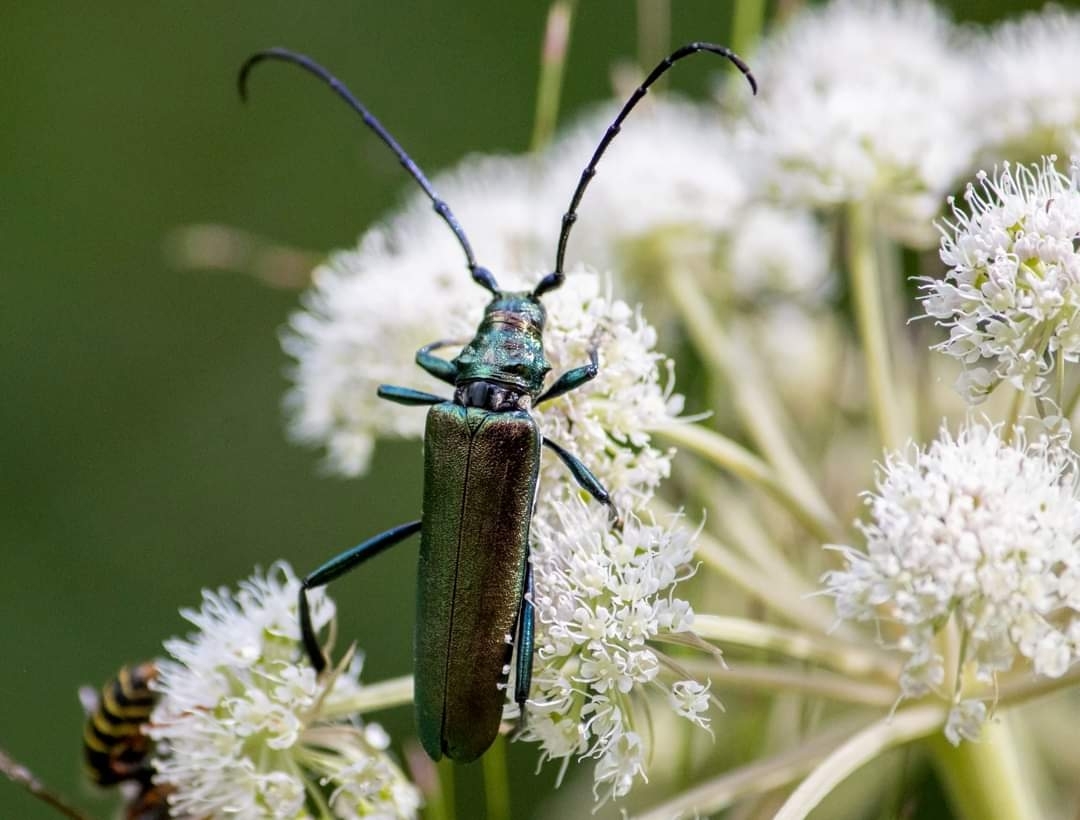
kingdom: Animalia
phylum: Arthropoda
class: Insecta
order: Coleoptera
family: Cerambycidae
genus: Aromia
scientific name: Aromia moschata
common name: Musk beetle
